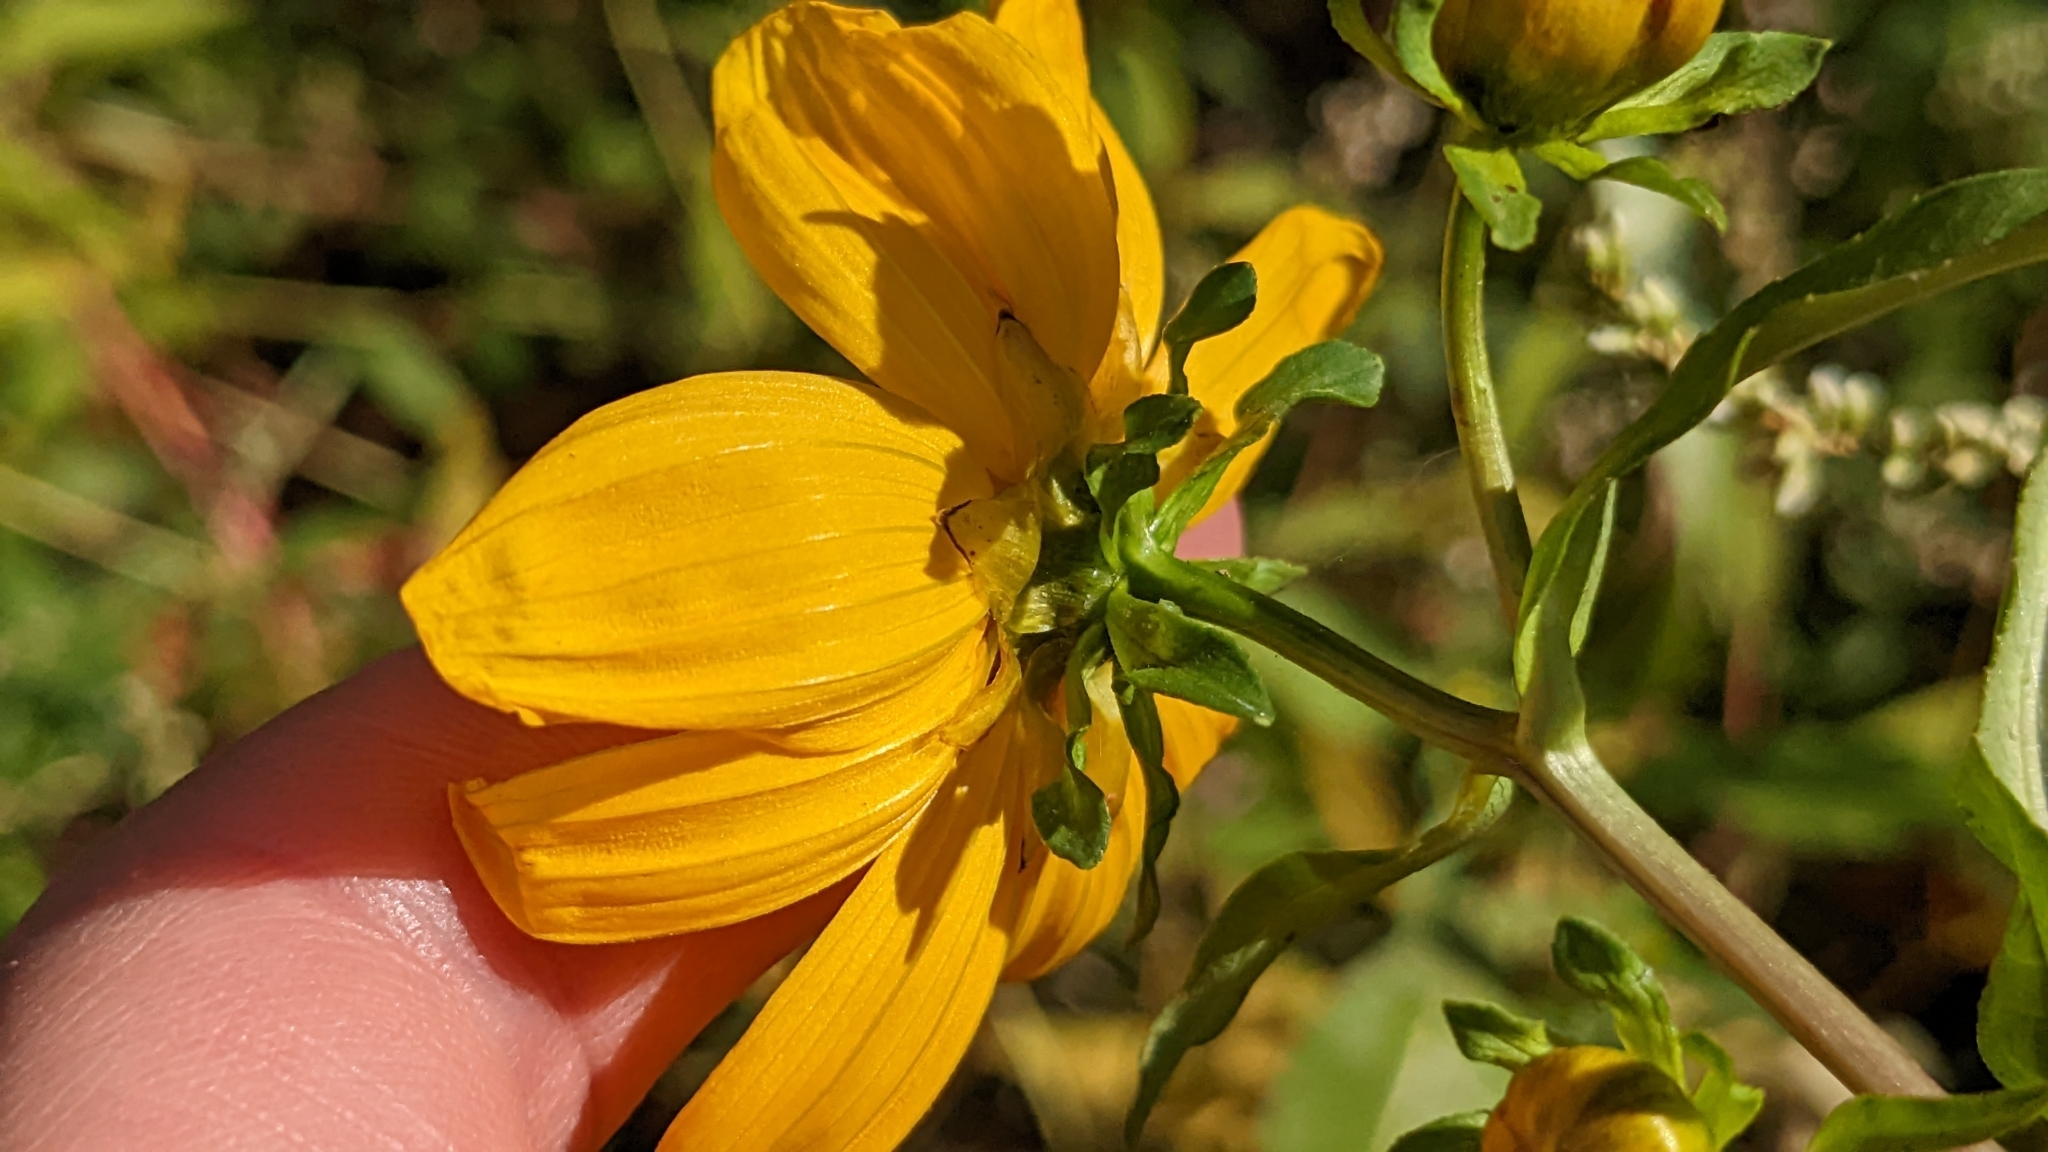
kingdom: Plantae
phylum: Tracheophyta
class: Magnoliopsida
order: Asterales
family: Asteraceae
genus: Bidens
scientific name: Bidens laevis
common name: Larger bur-marigold
